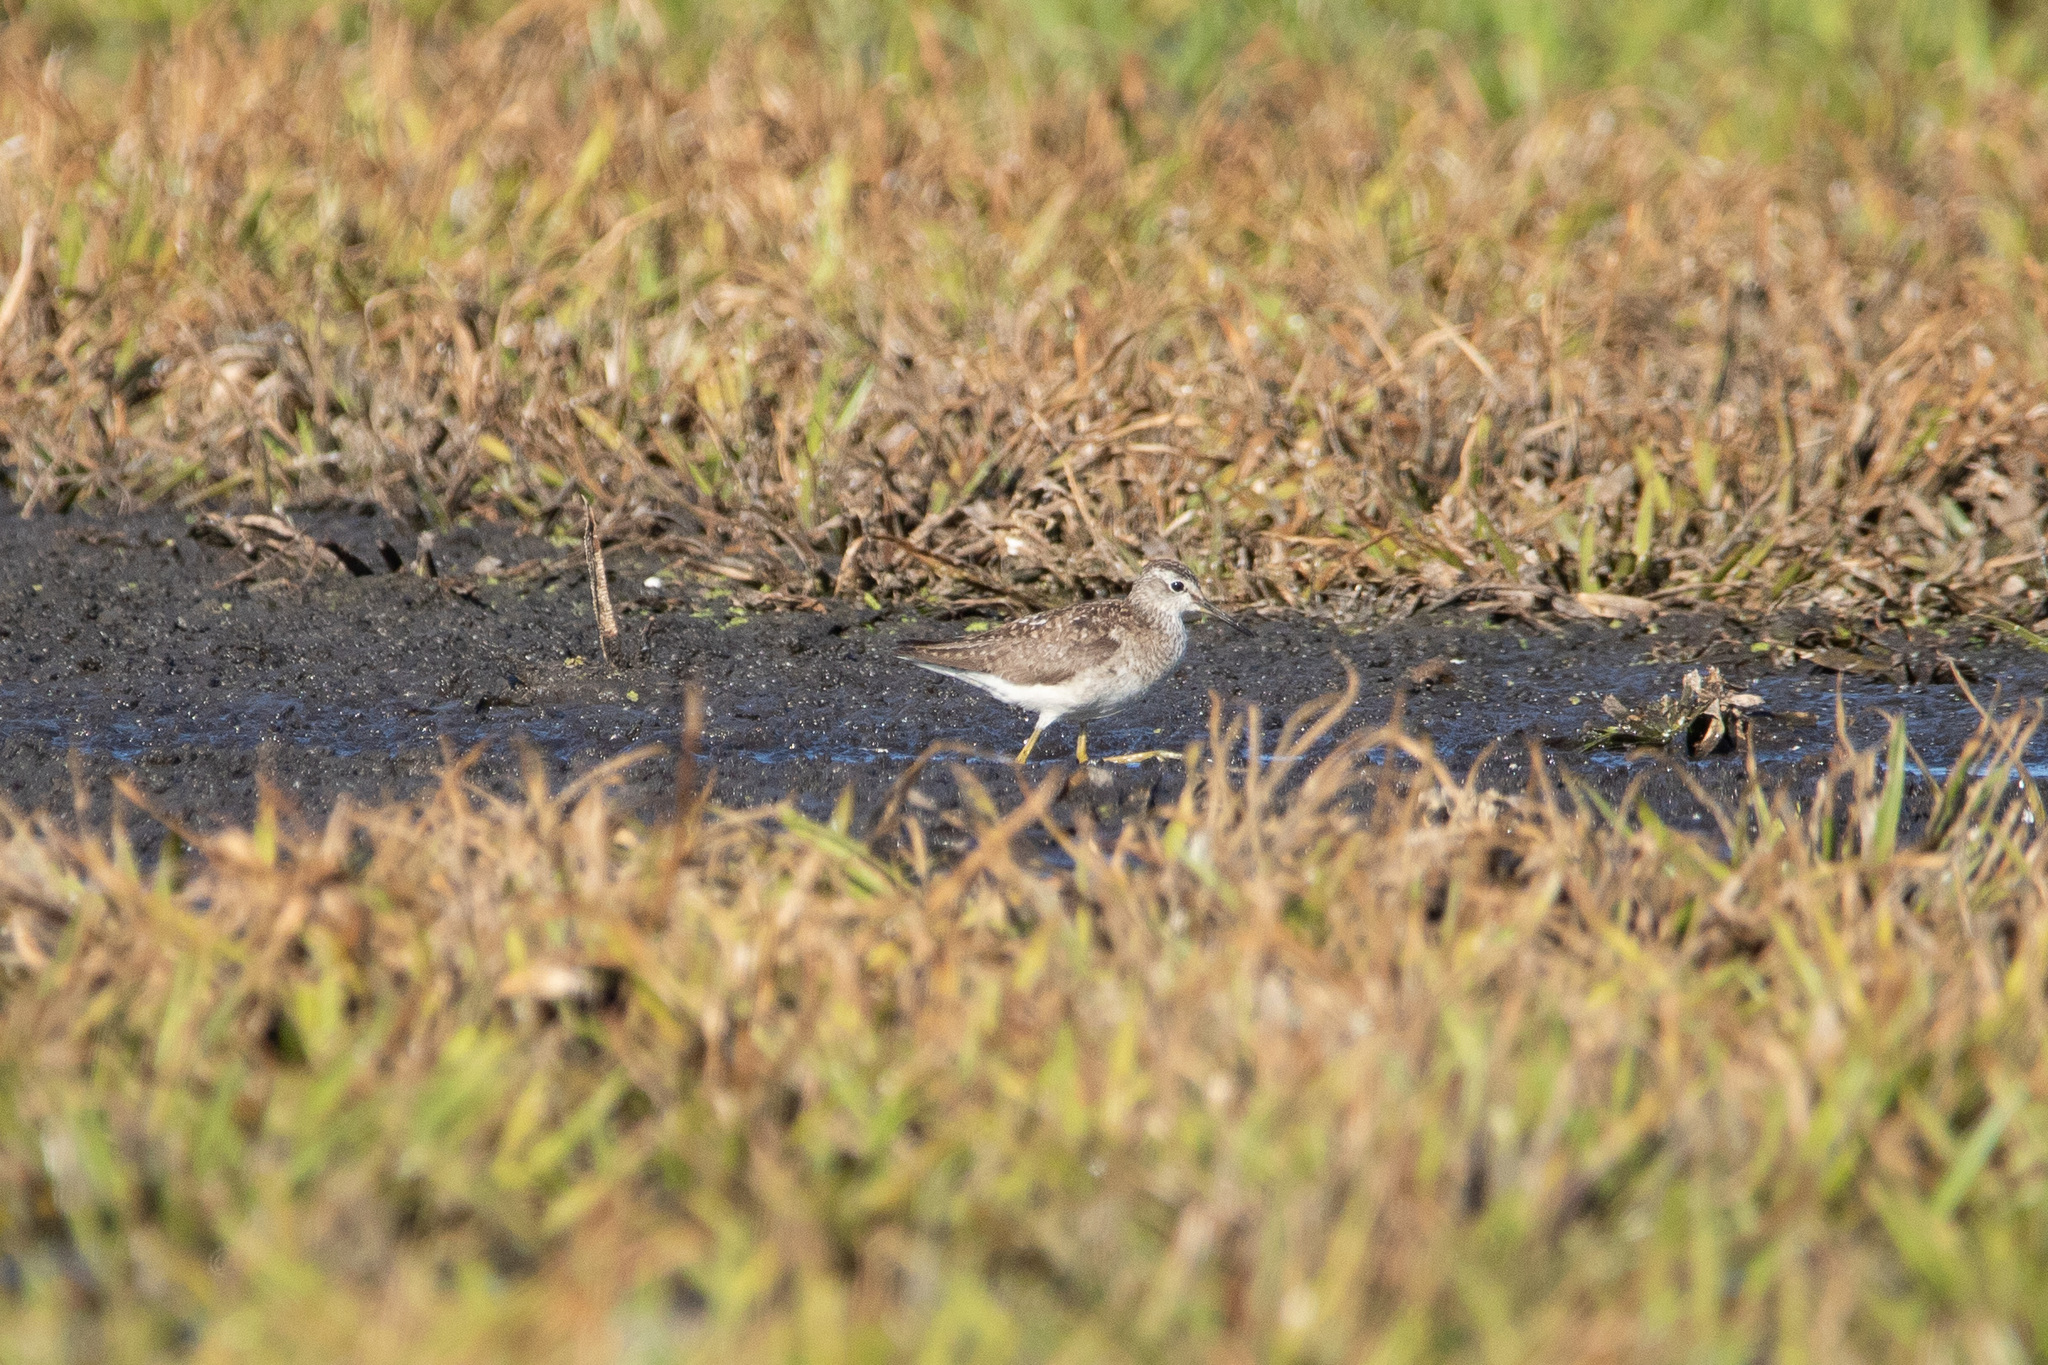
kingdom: Animalia
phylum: Chordata
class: Aves
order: Charadriiformes
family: Scolopacidae
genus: Tringa
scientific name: Tringa glareola
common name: Wood sandpiper
